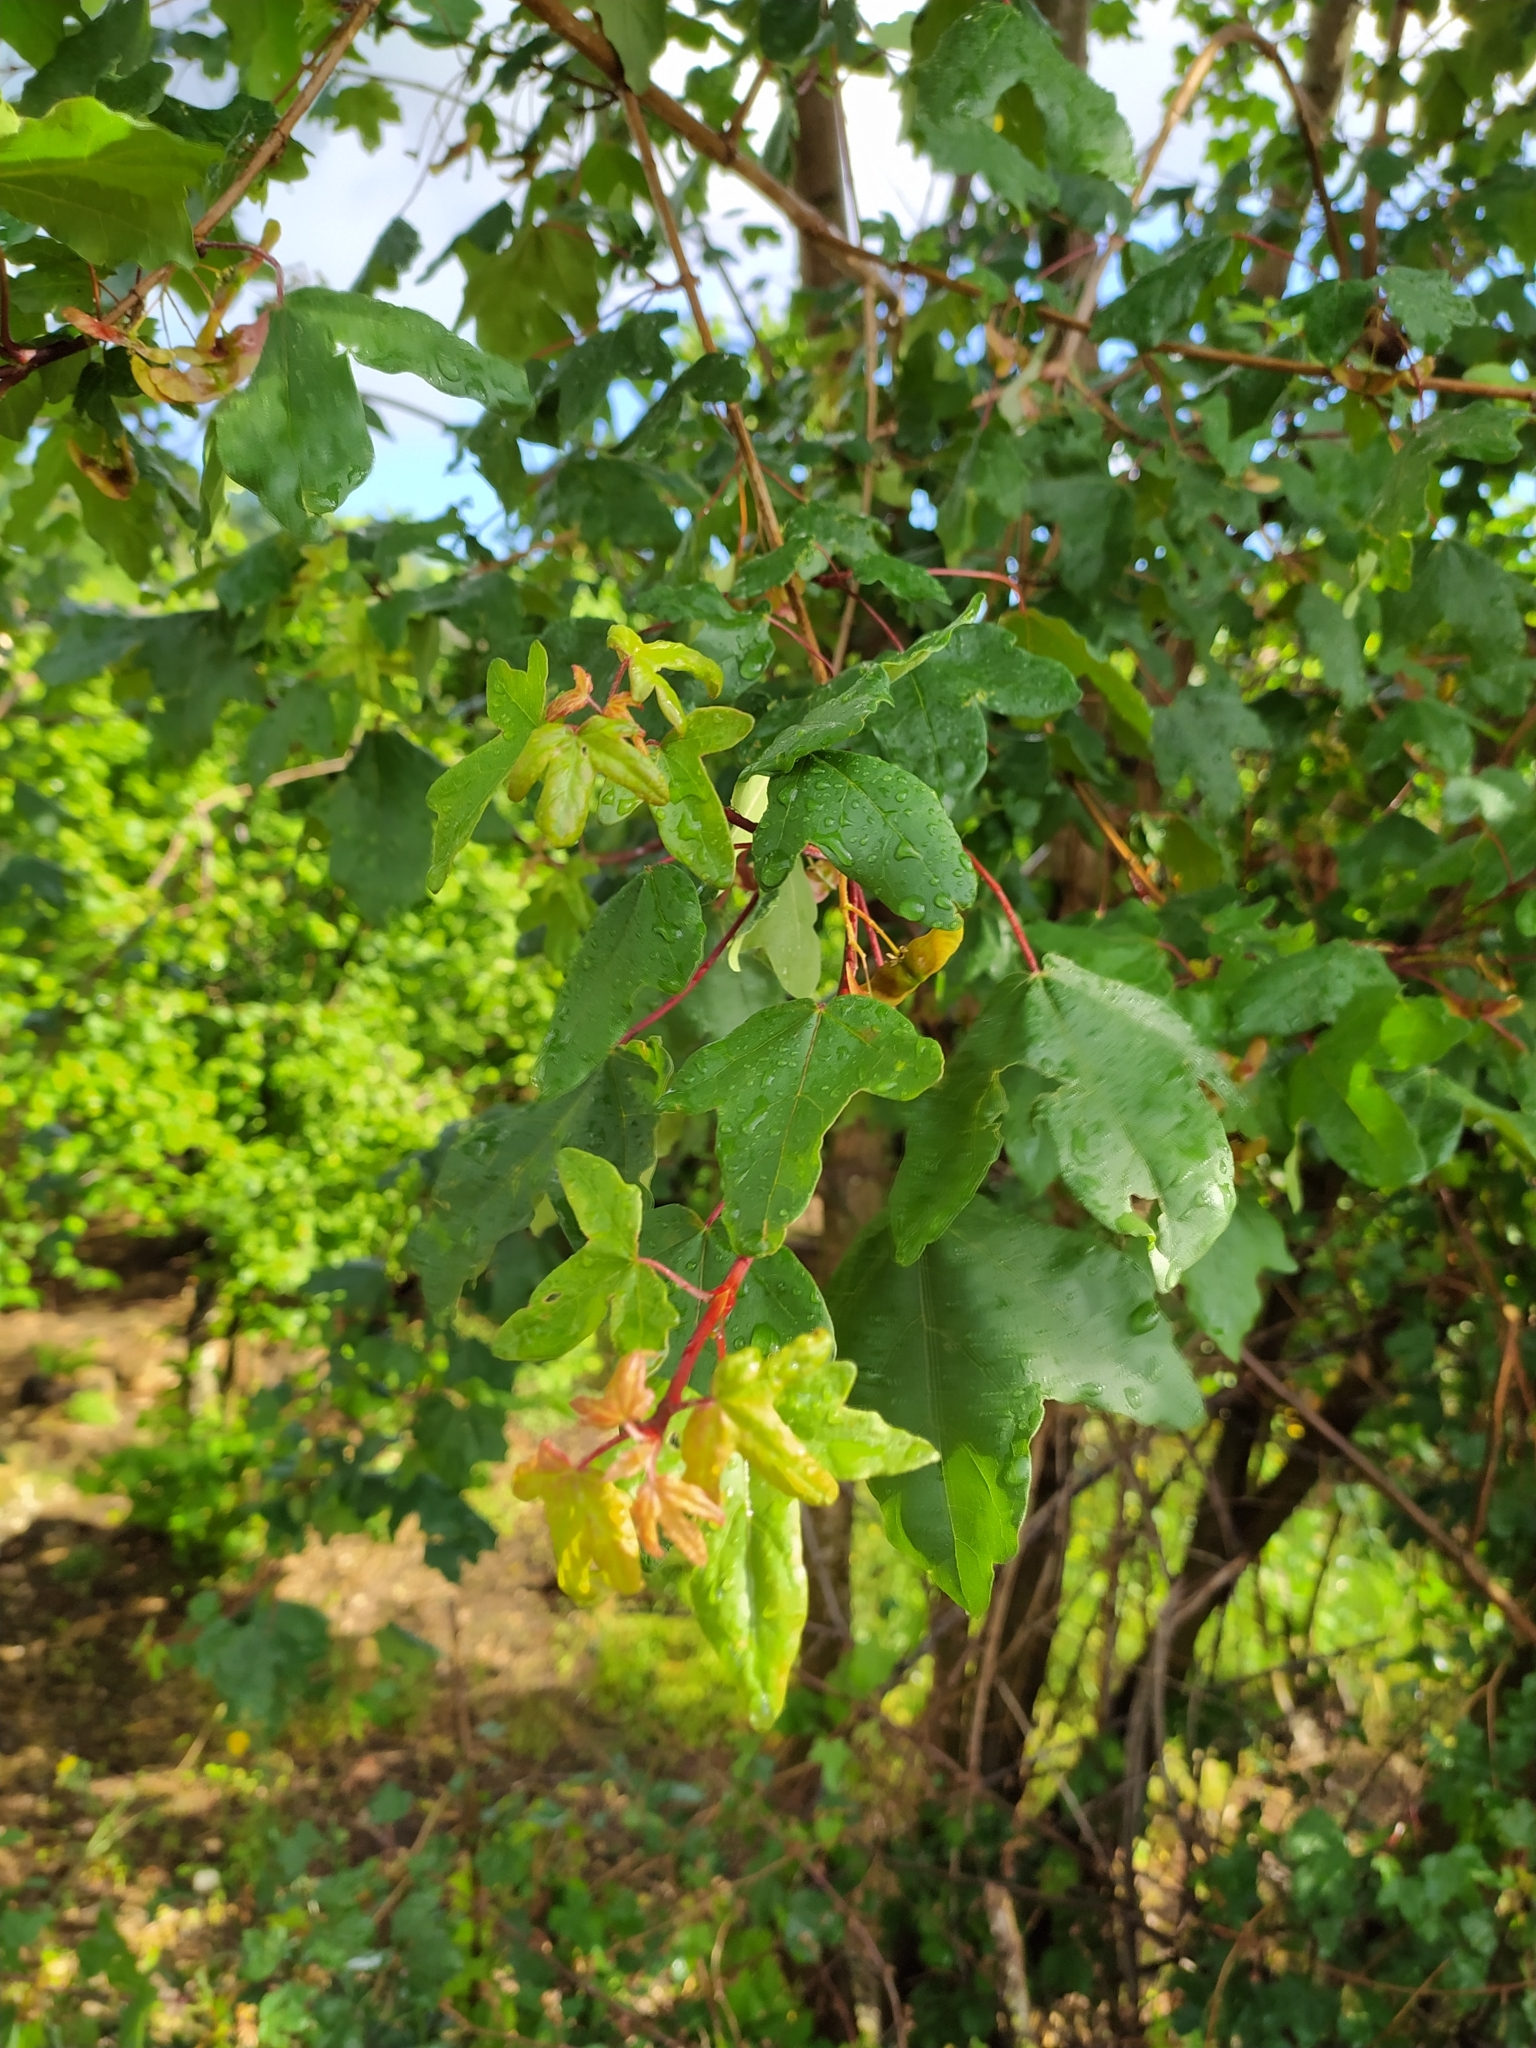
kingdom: Plantae
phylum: Tracheophyta
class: Magnoliopsida
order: Sapindales
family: Sapindaceae
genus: Acer
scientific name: Acer monspessulanum
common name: Montpellier maple
